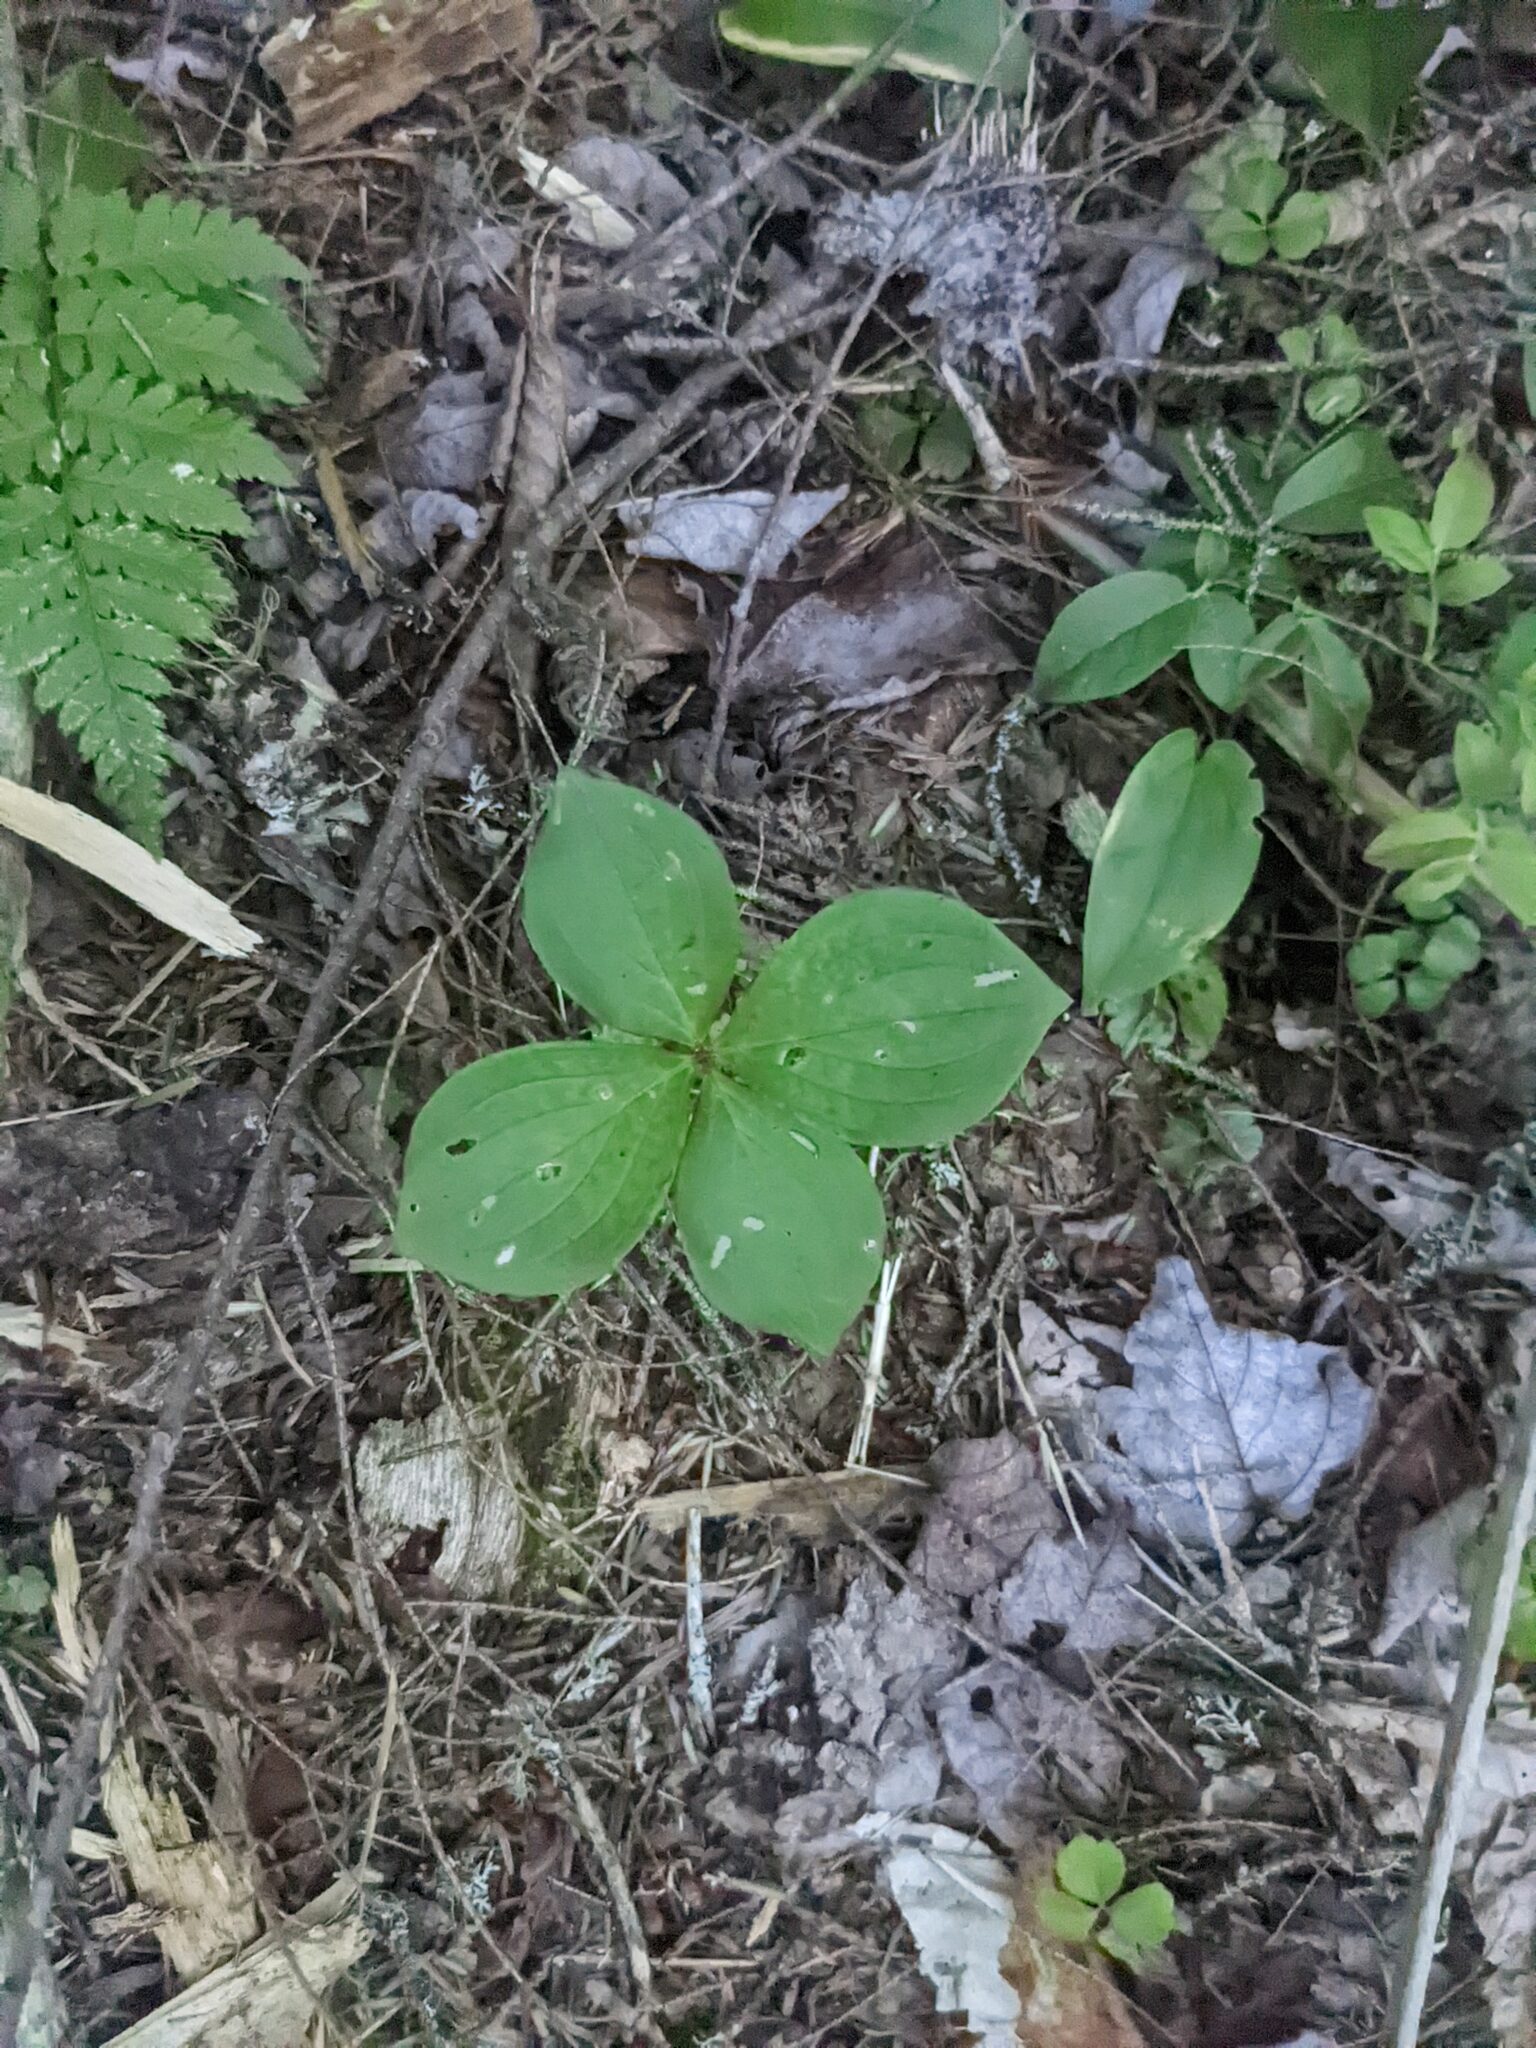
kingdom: Plantae
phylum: Tracheophyta
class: Magnoliopsida
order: Cornales
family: Cornaceae
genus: Cornus
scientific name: Cornus canadensis
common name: Creeping dogwood
